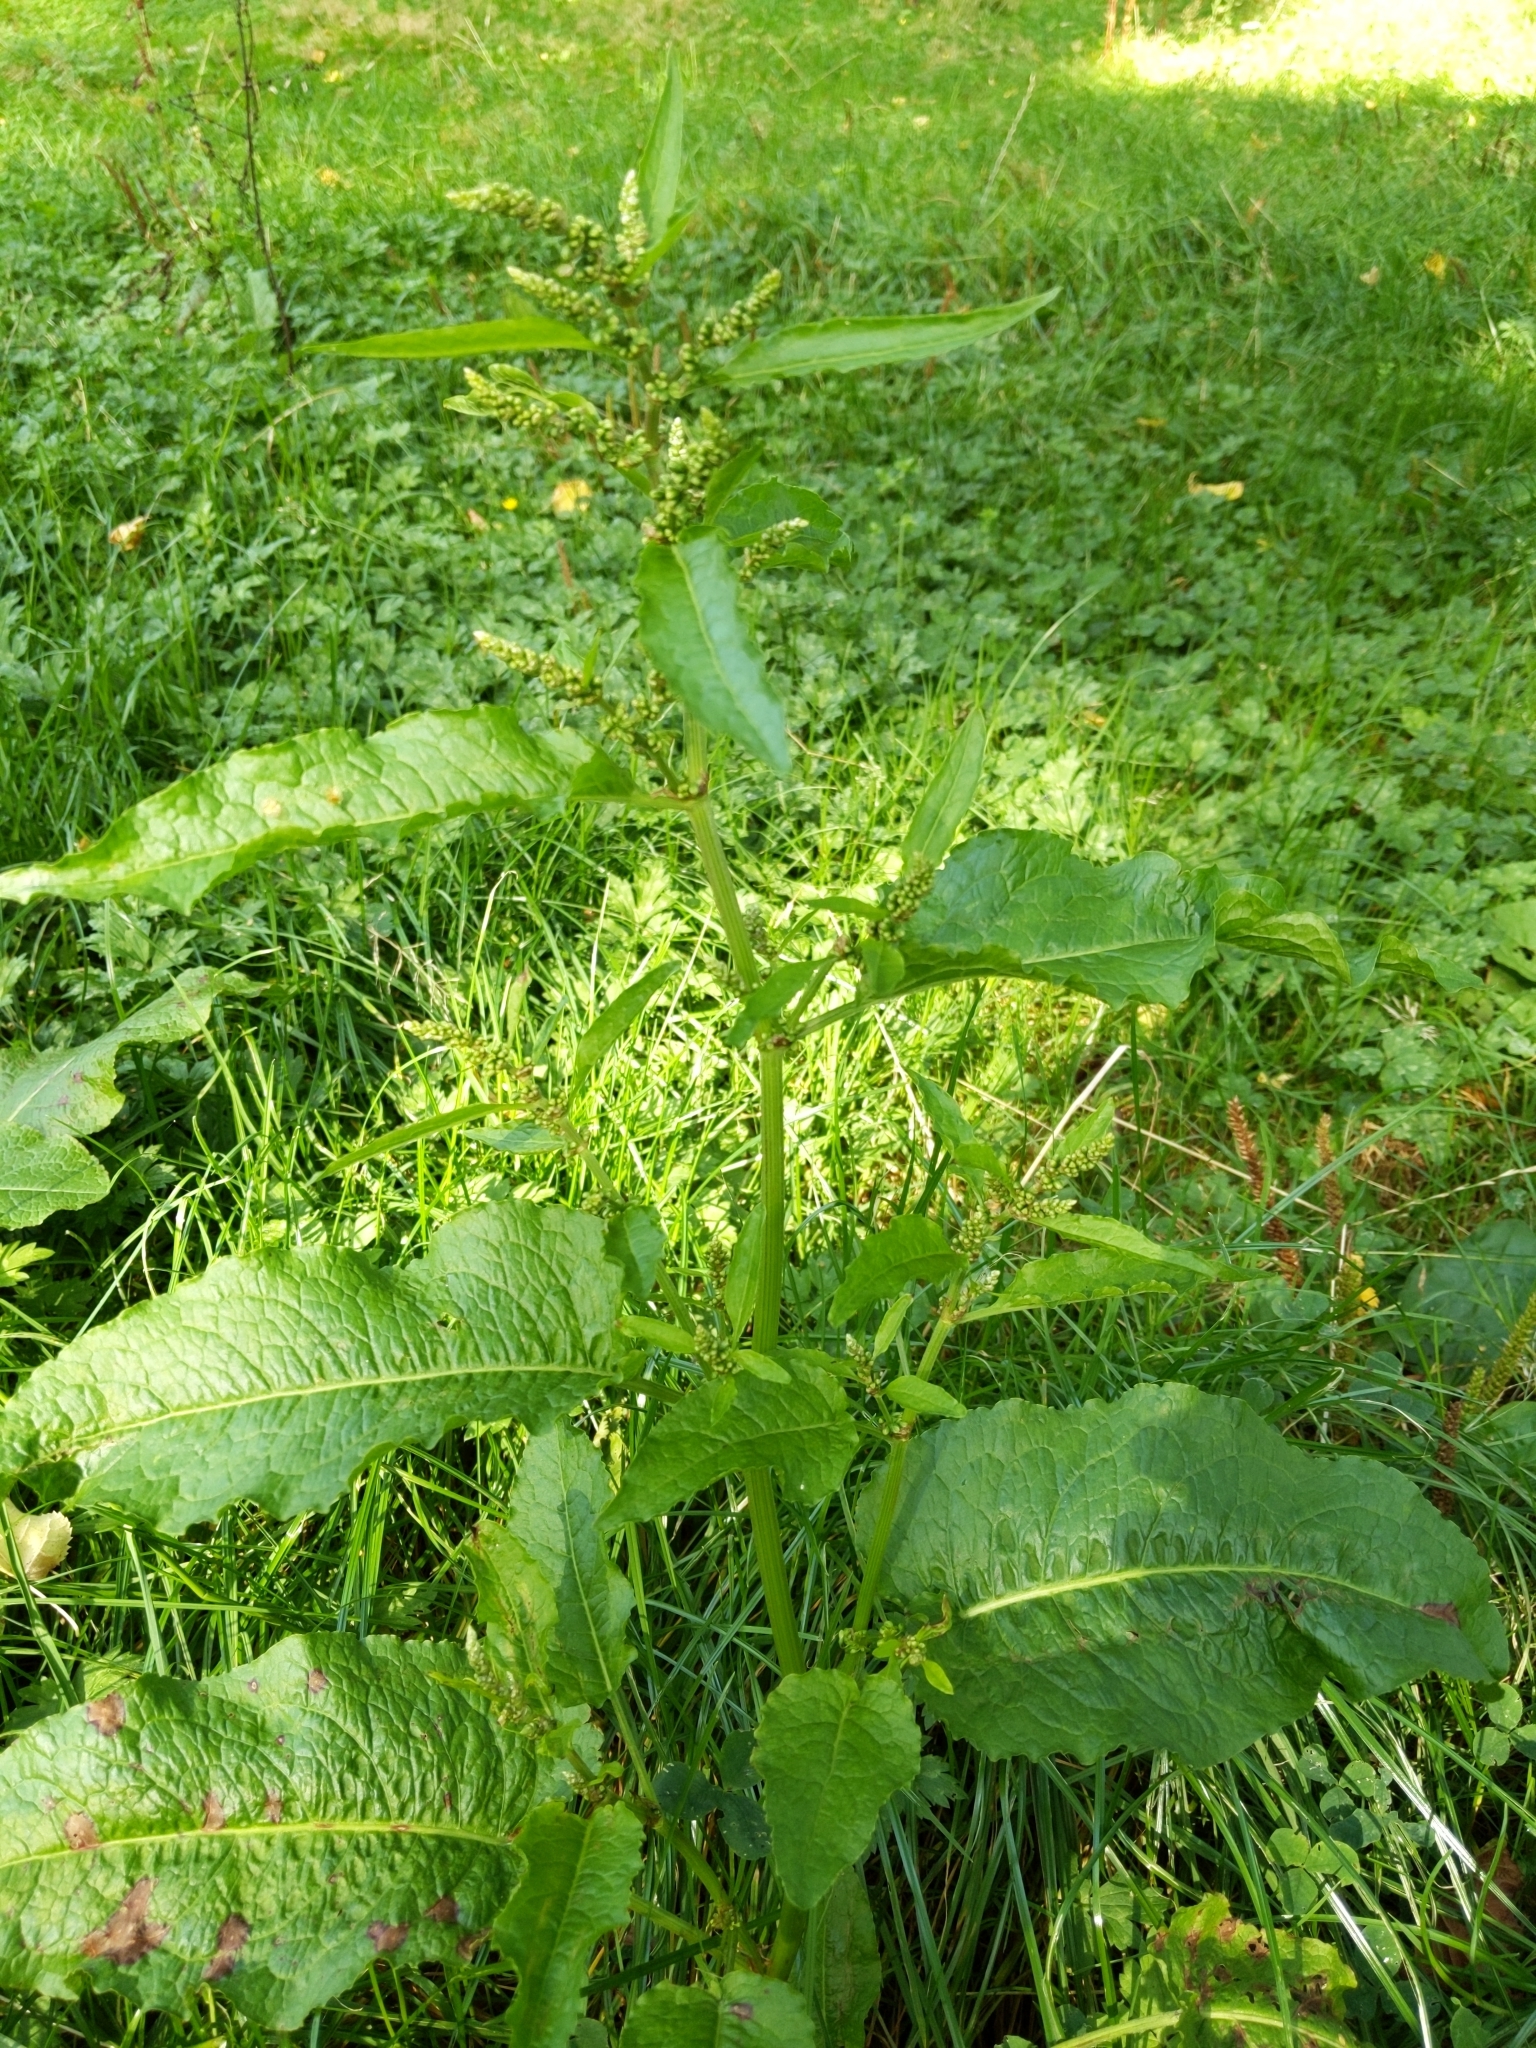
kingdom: Plantae
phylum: Tracheophyta
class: Magnoliopsida
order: Caryophyllales
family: Polygonaceae
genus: Rumex
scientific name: Rumex obtusifolius
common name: Bitter dock
